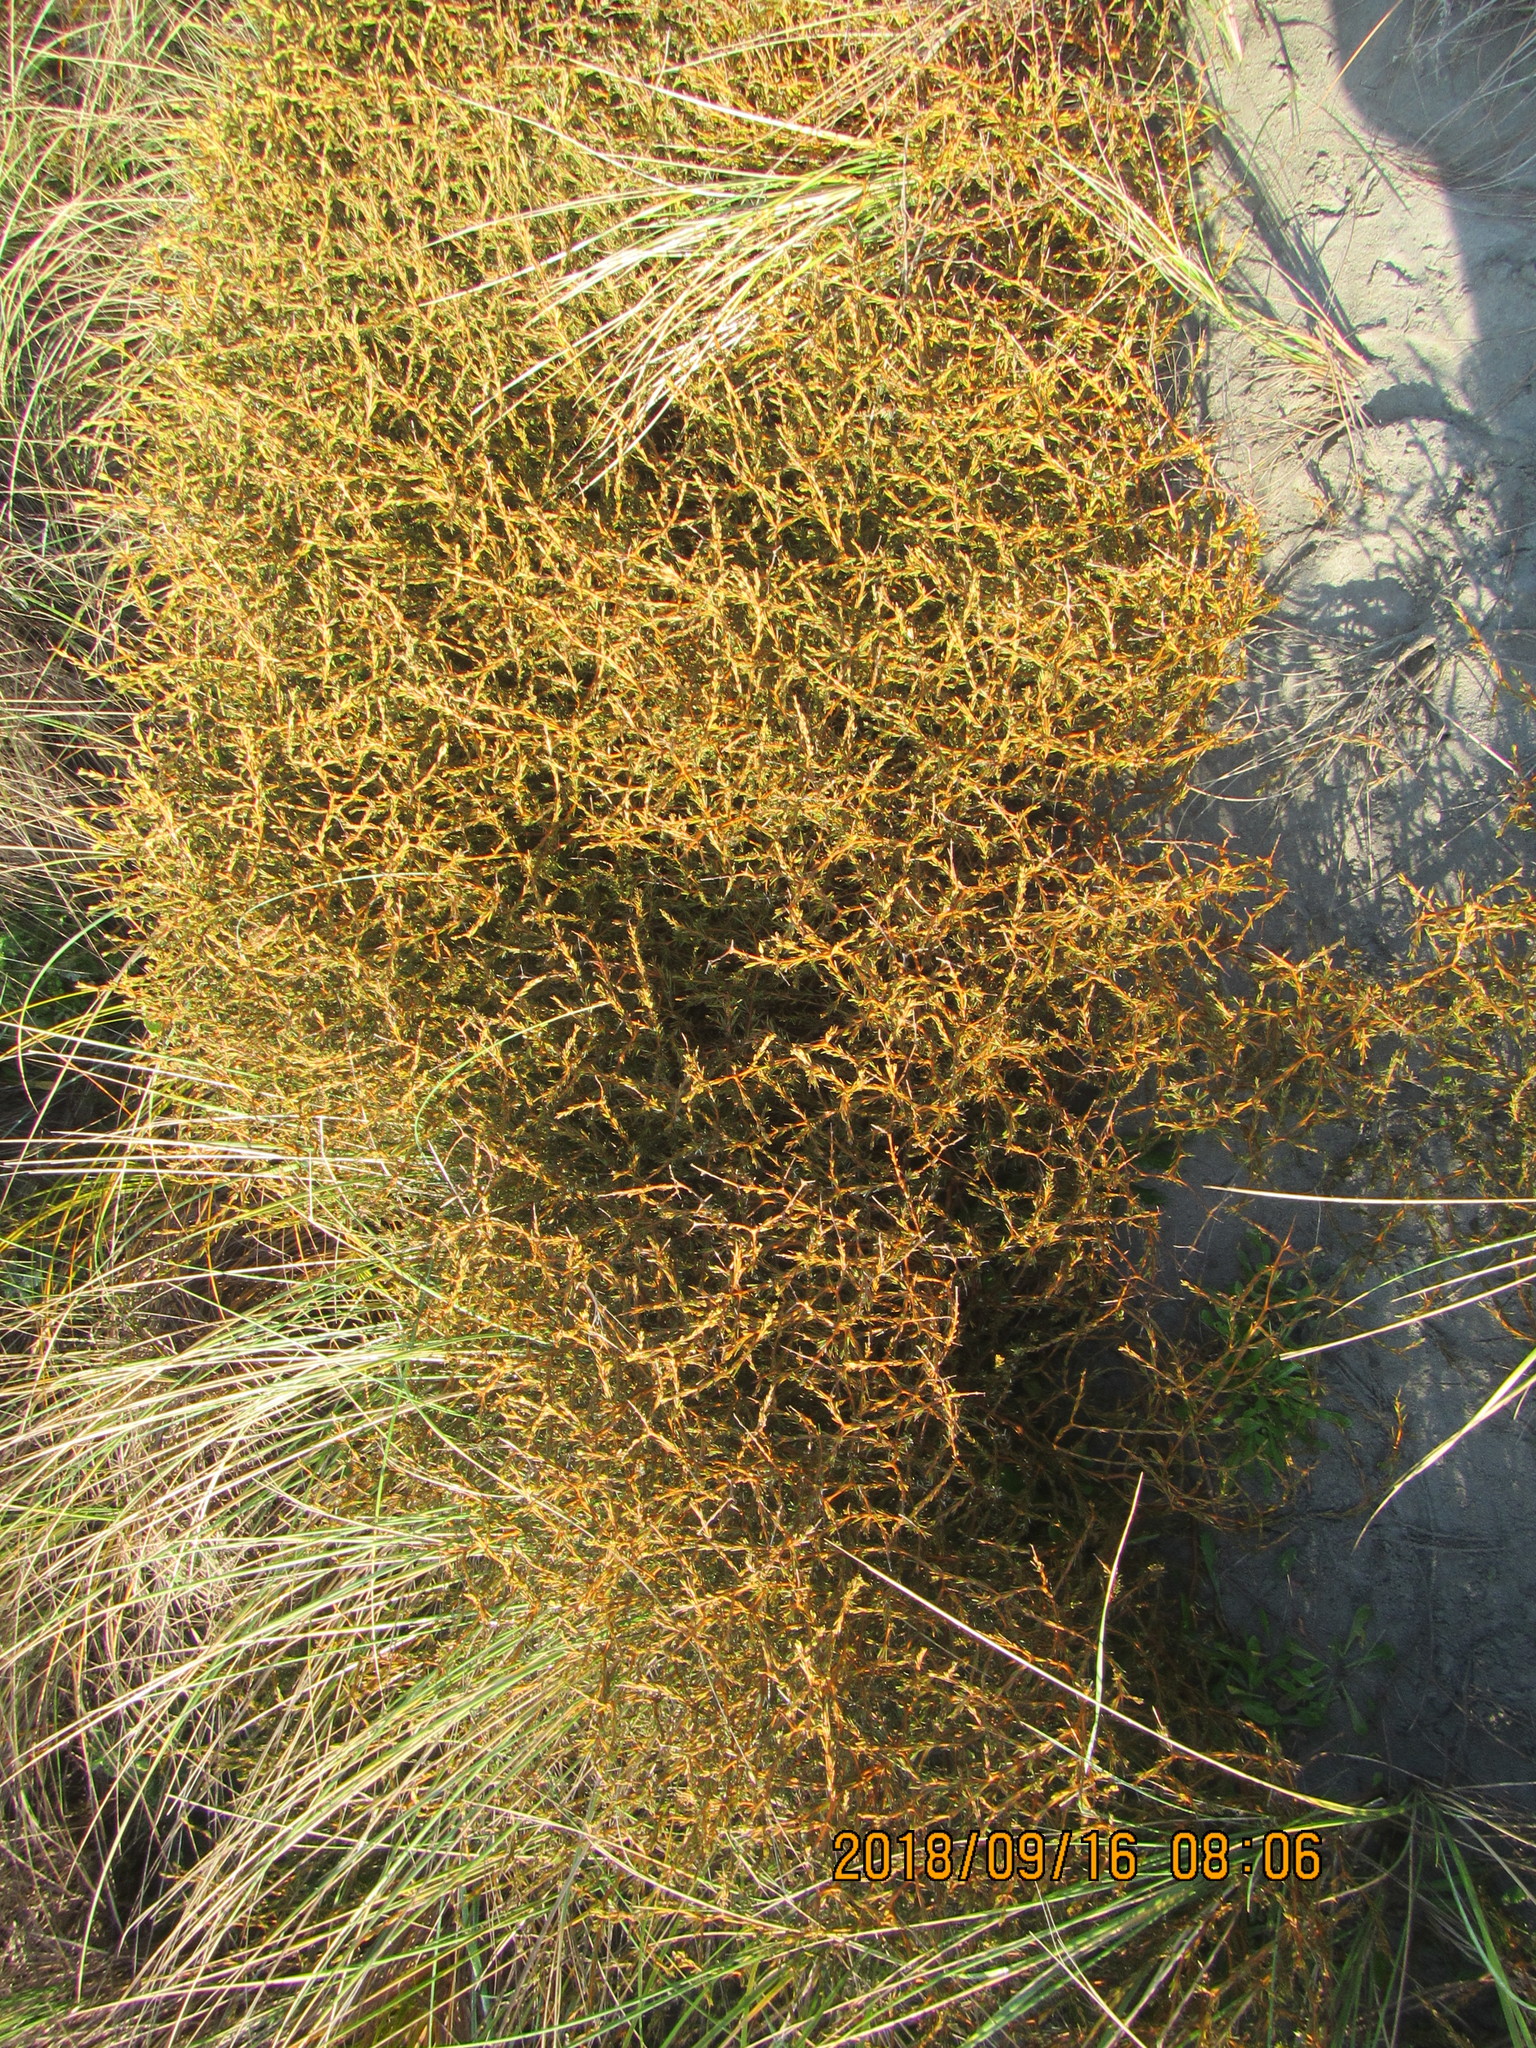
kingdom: Plantae
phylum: Tracheophyta
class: Magnoliopsida
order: Gentianales
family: Rubiaceae
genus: Coprosma
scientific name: Coprosma acerosa
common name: Sand coprosma
